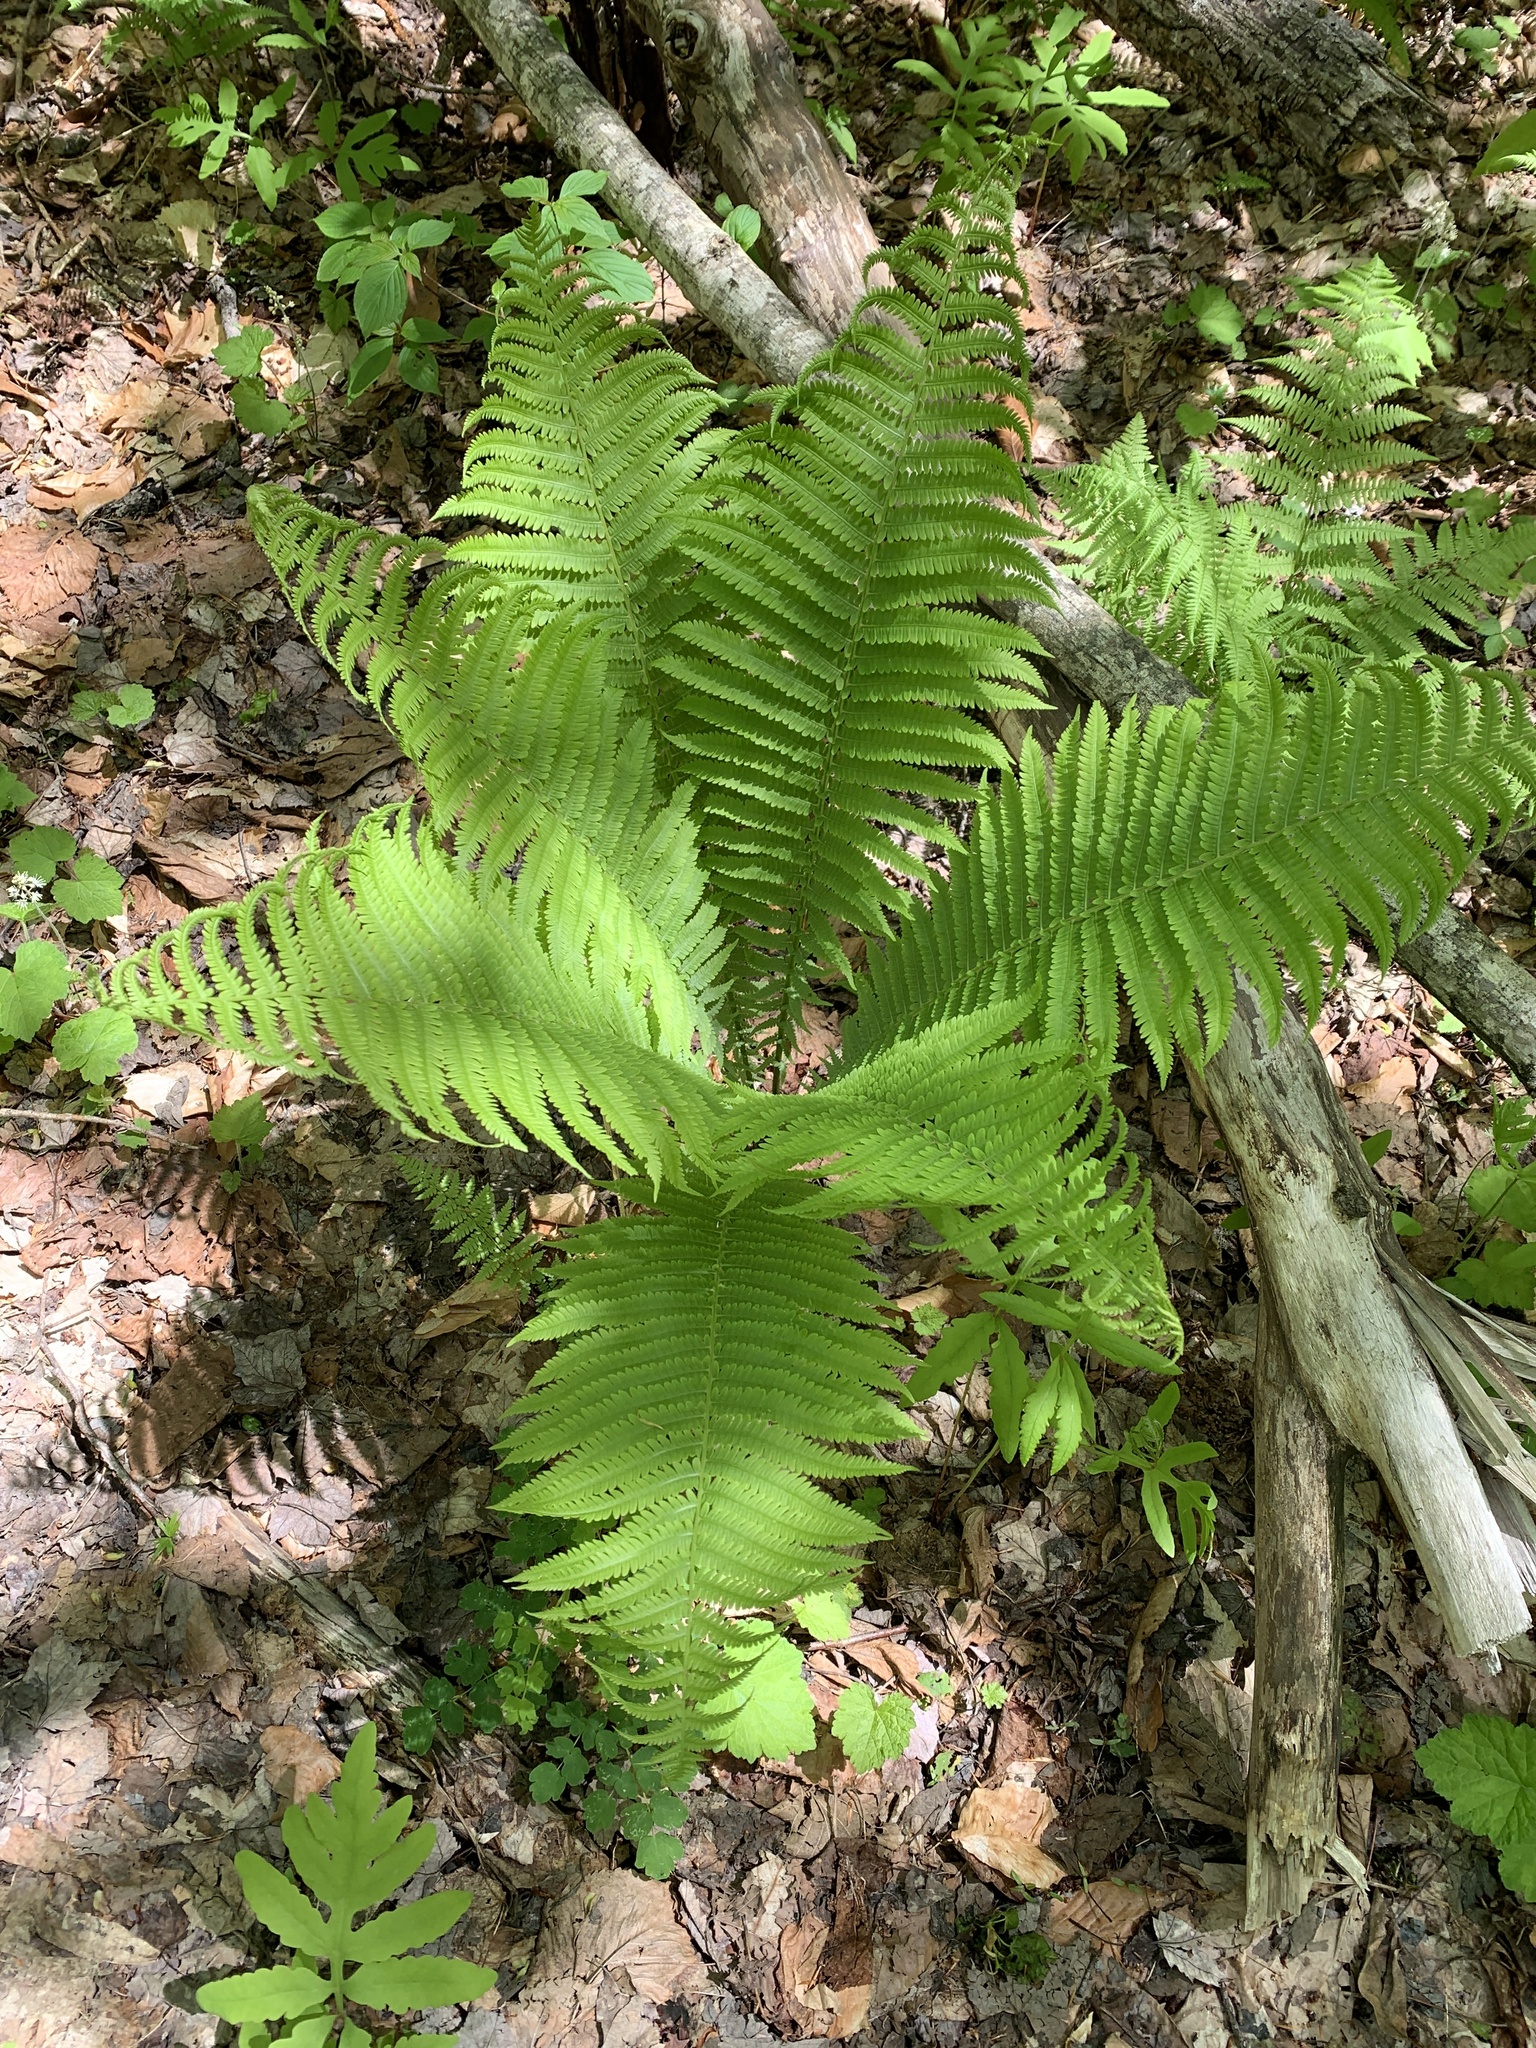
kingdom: Plantae
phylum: Tracheophyta
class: Polypodiopsida
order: Polypodiales
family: Onocleaceae
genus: Matteuccia
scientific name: Matteuccia struthiopteris
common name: Ostrich fern
